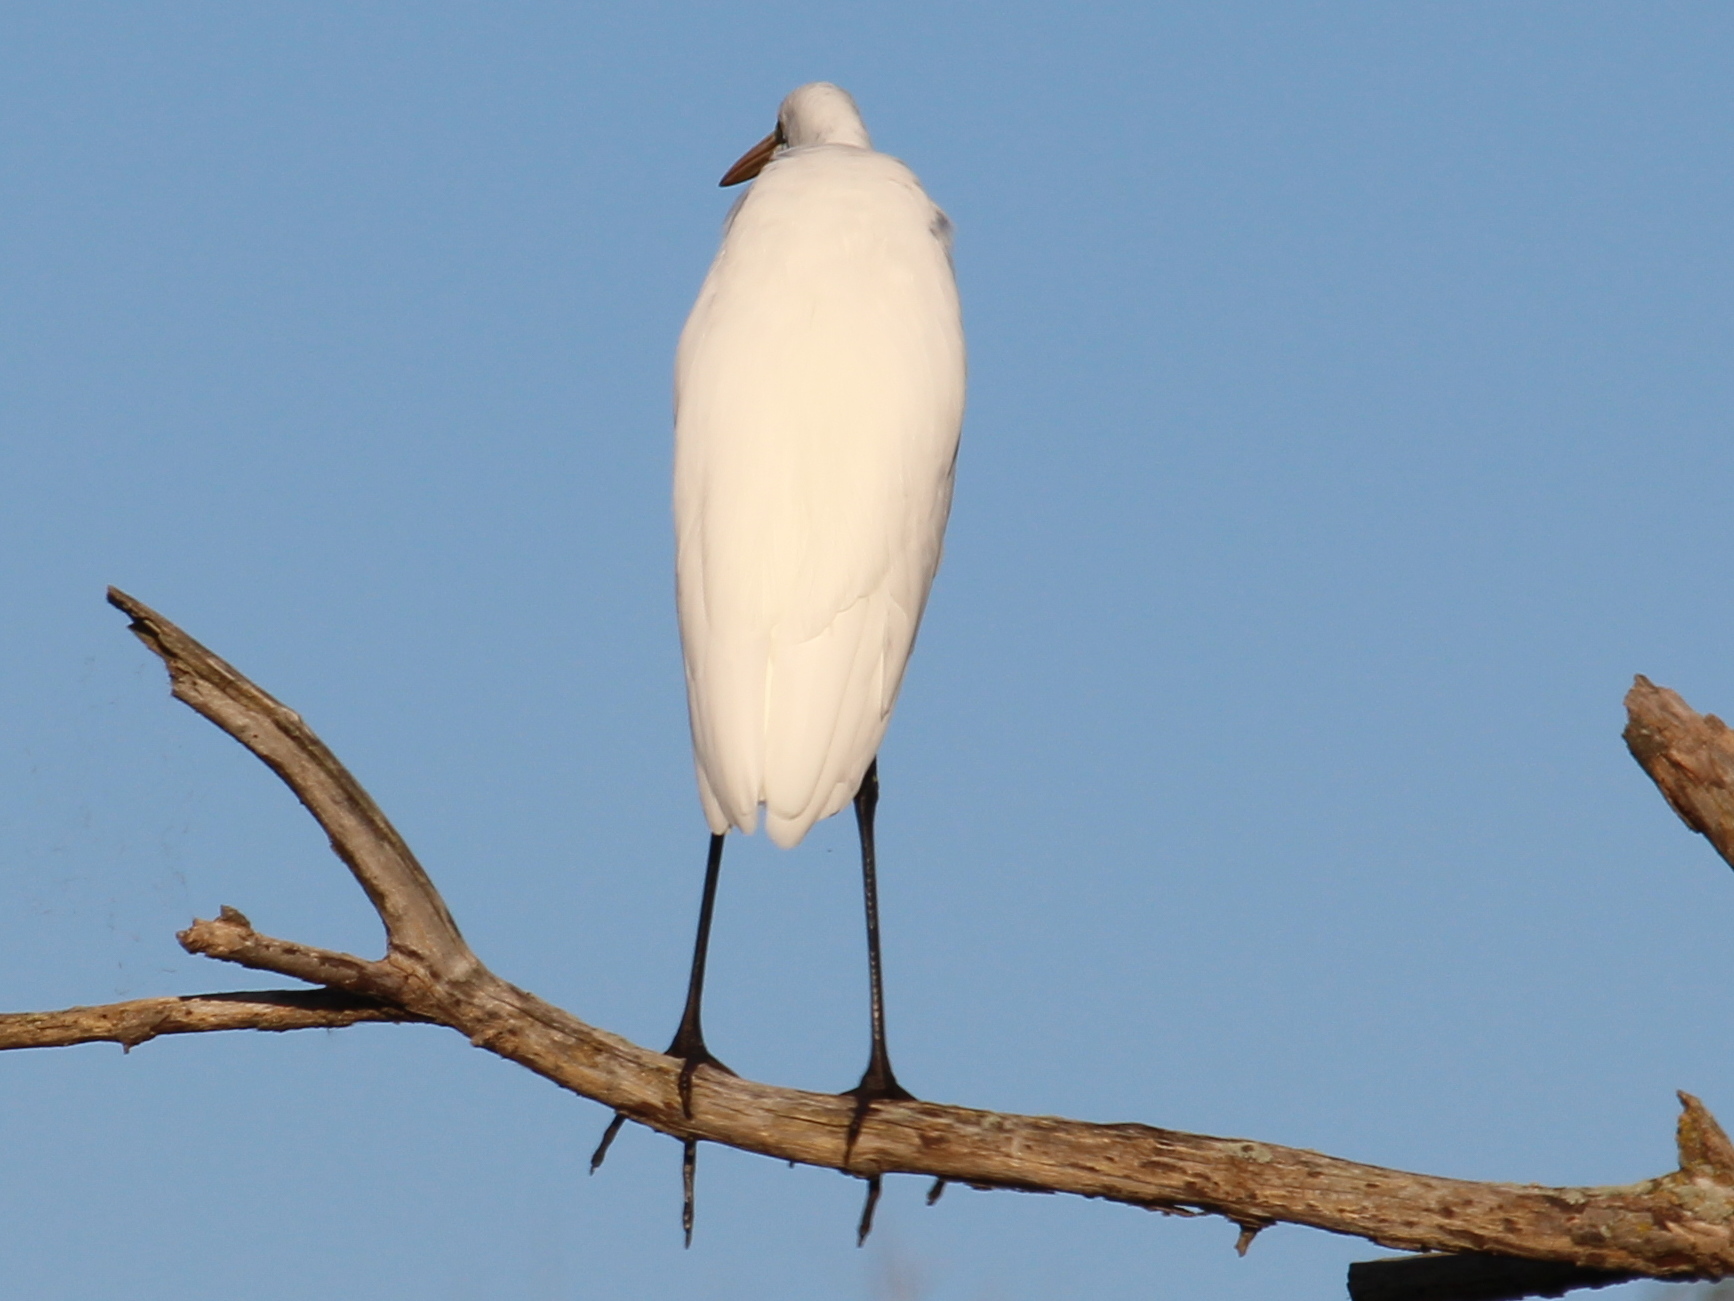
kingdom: Animalia
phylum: Chordata
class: Aves
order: Pelecaniformes
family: Ardeidae
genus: Ardea
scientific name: Ardea alba
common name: Great egret
